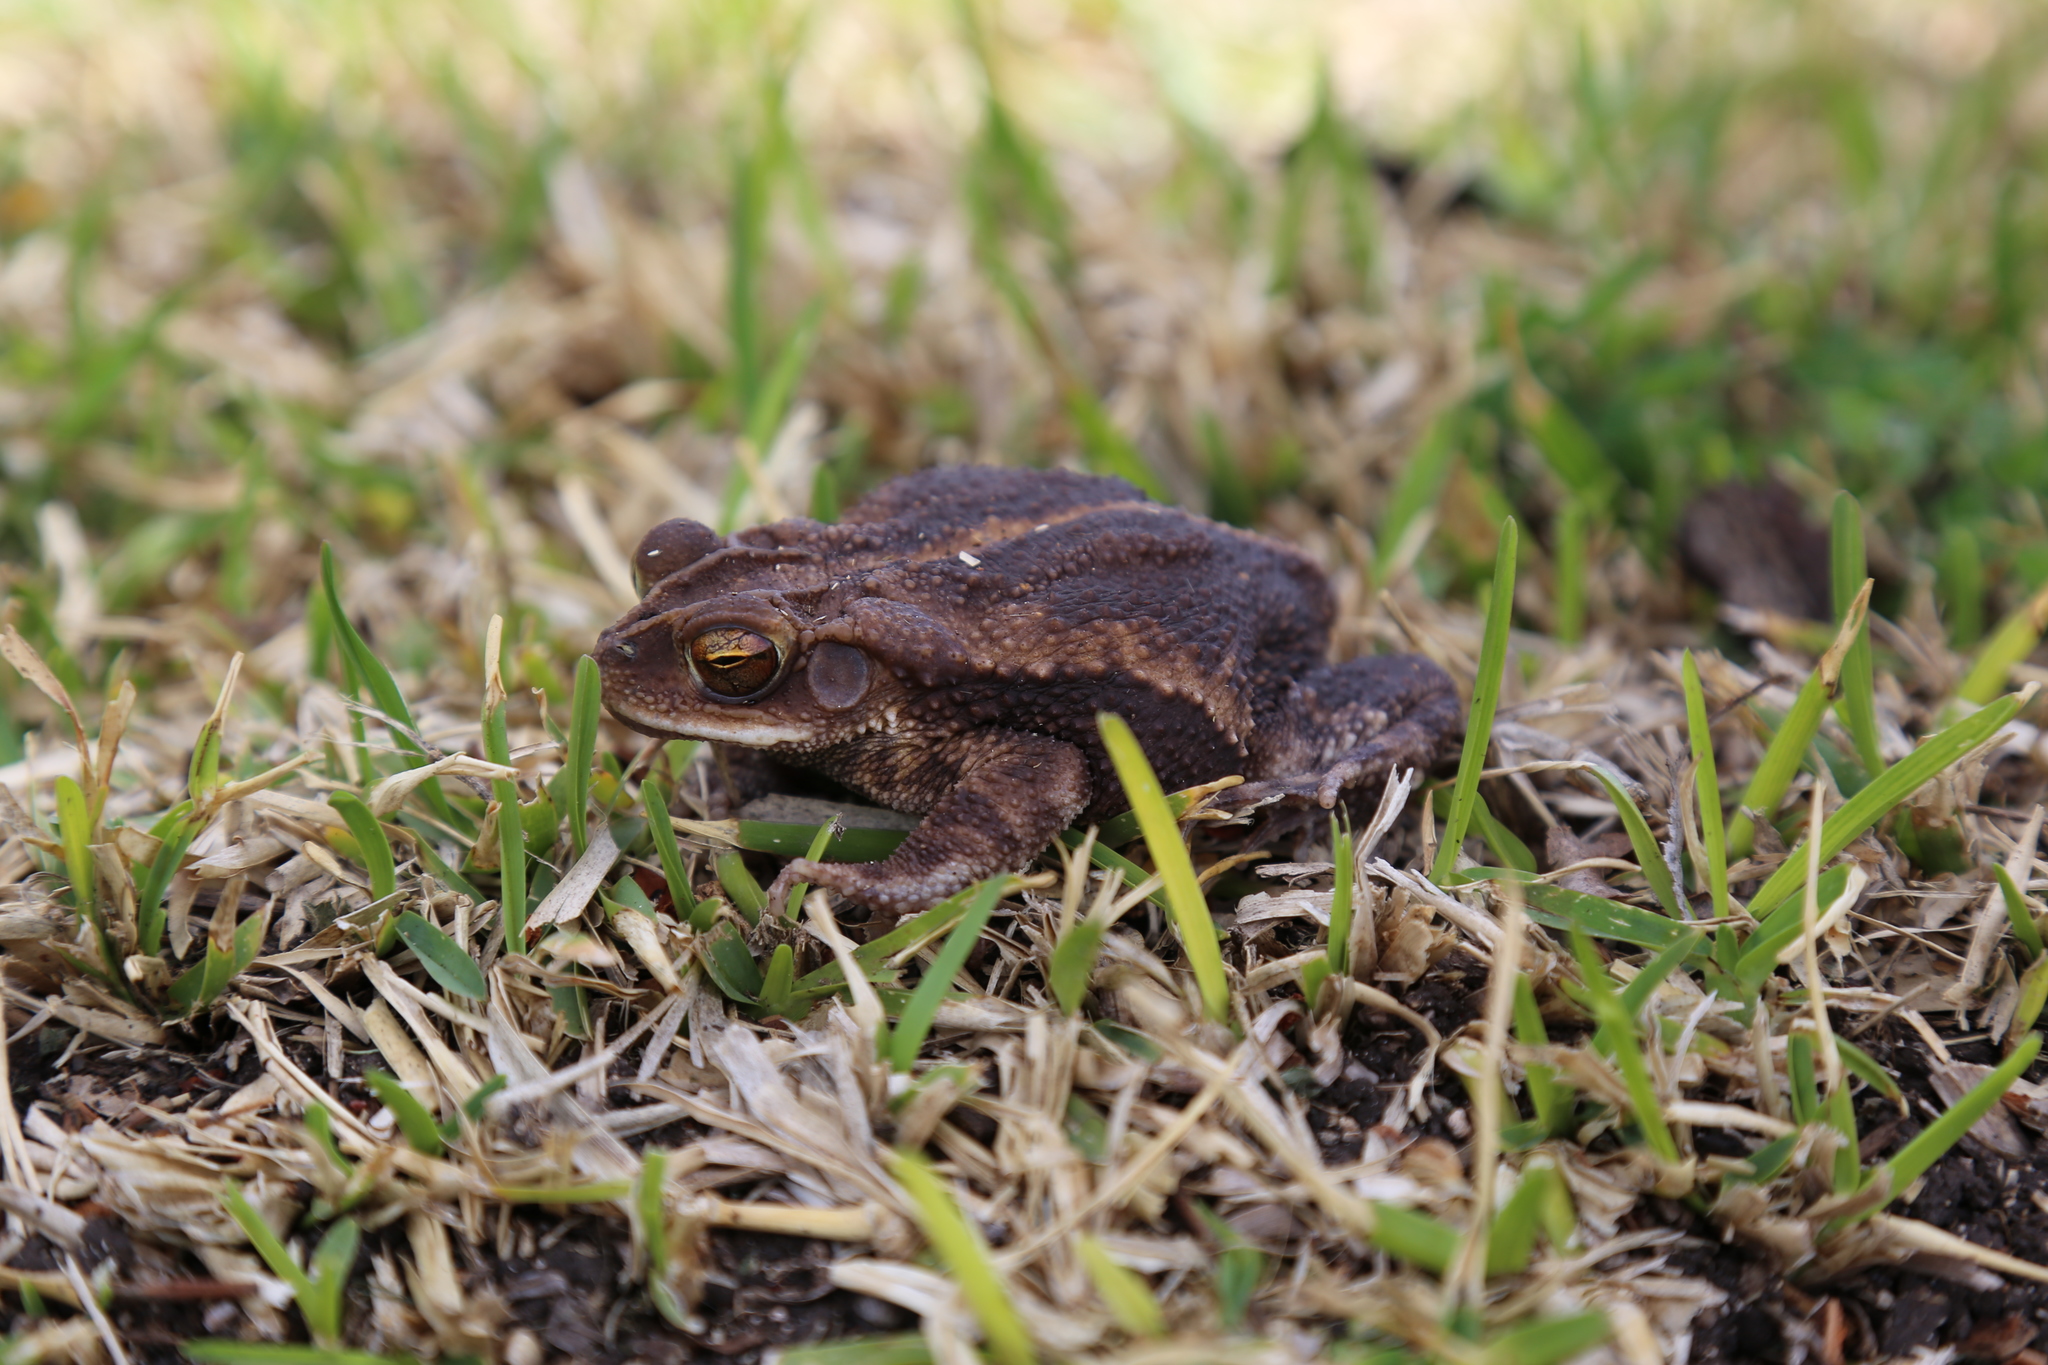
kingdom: Animalia
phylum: Chordata
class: Amphibia
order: Anura
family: Bufonidae
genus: Incilius
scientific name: Incilius nebulifer
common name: Gulf coast toad
